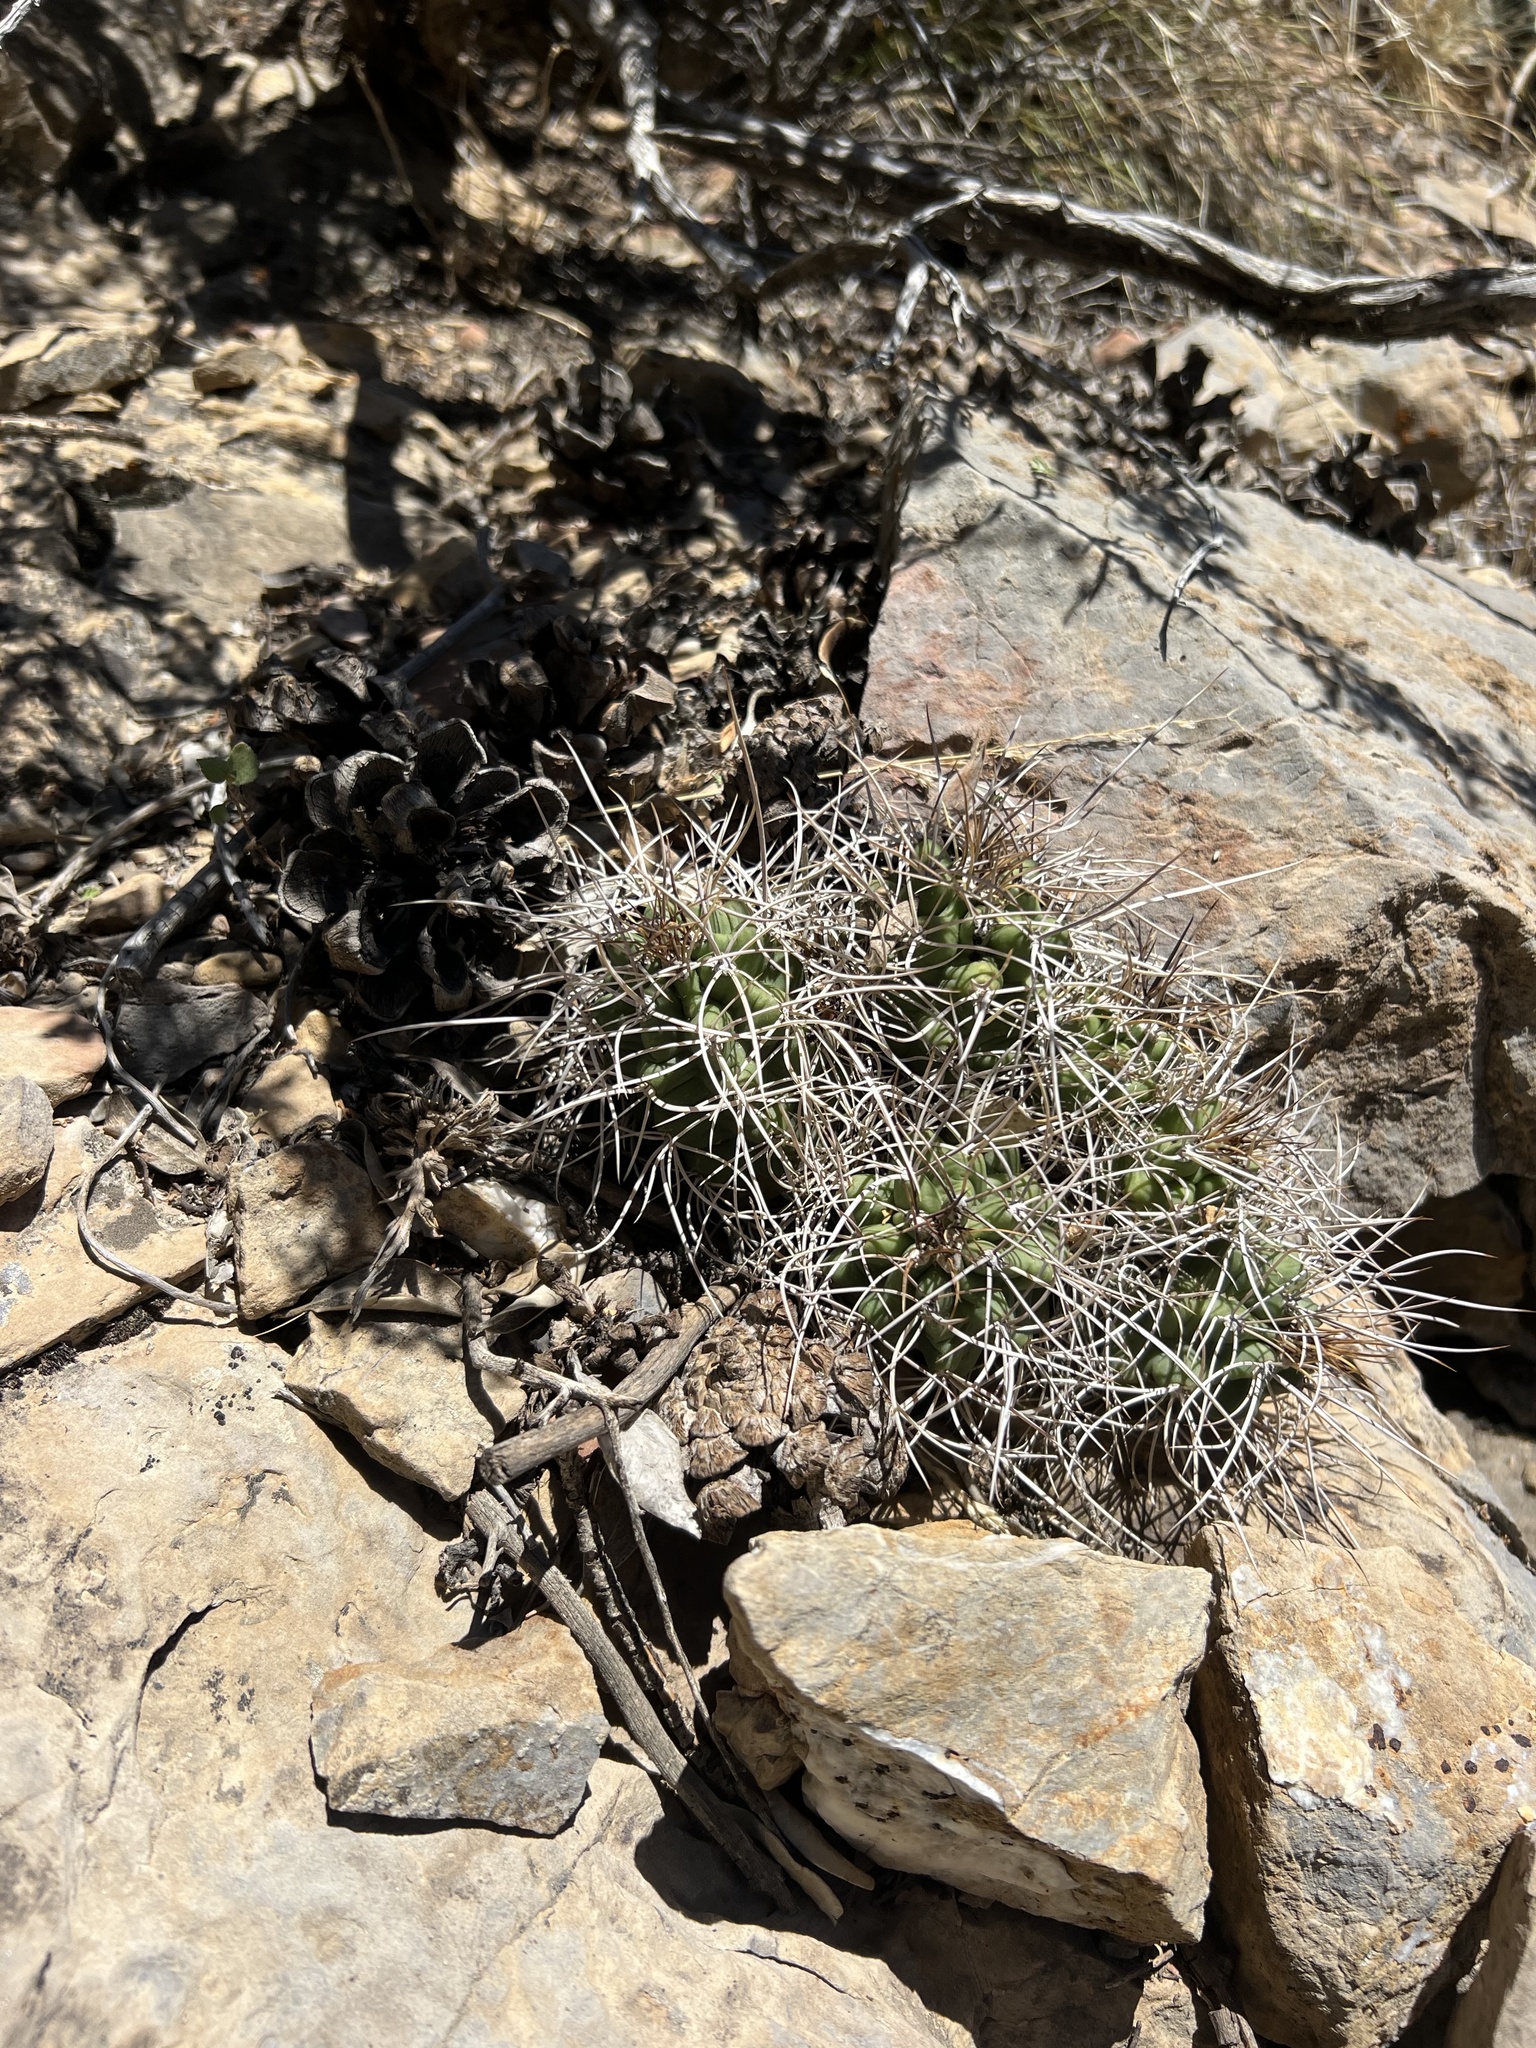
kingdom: Plantae
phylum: Tracheophyta
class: Magnoliopsida
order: Caryophyllales
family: Cactaceae
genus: Echinocereus
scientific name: Echinocereus triglochidiatus
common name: Claretcup hedgehog
